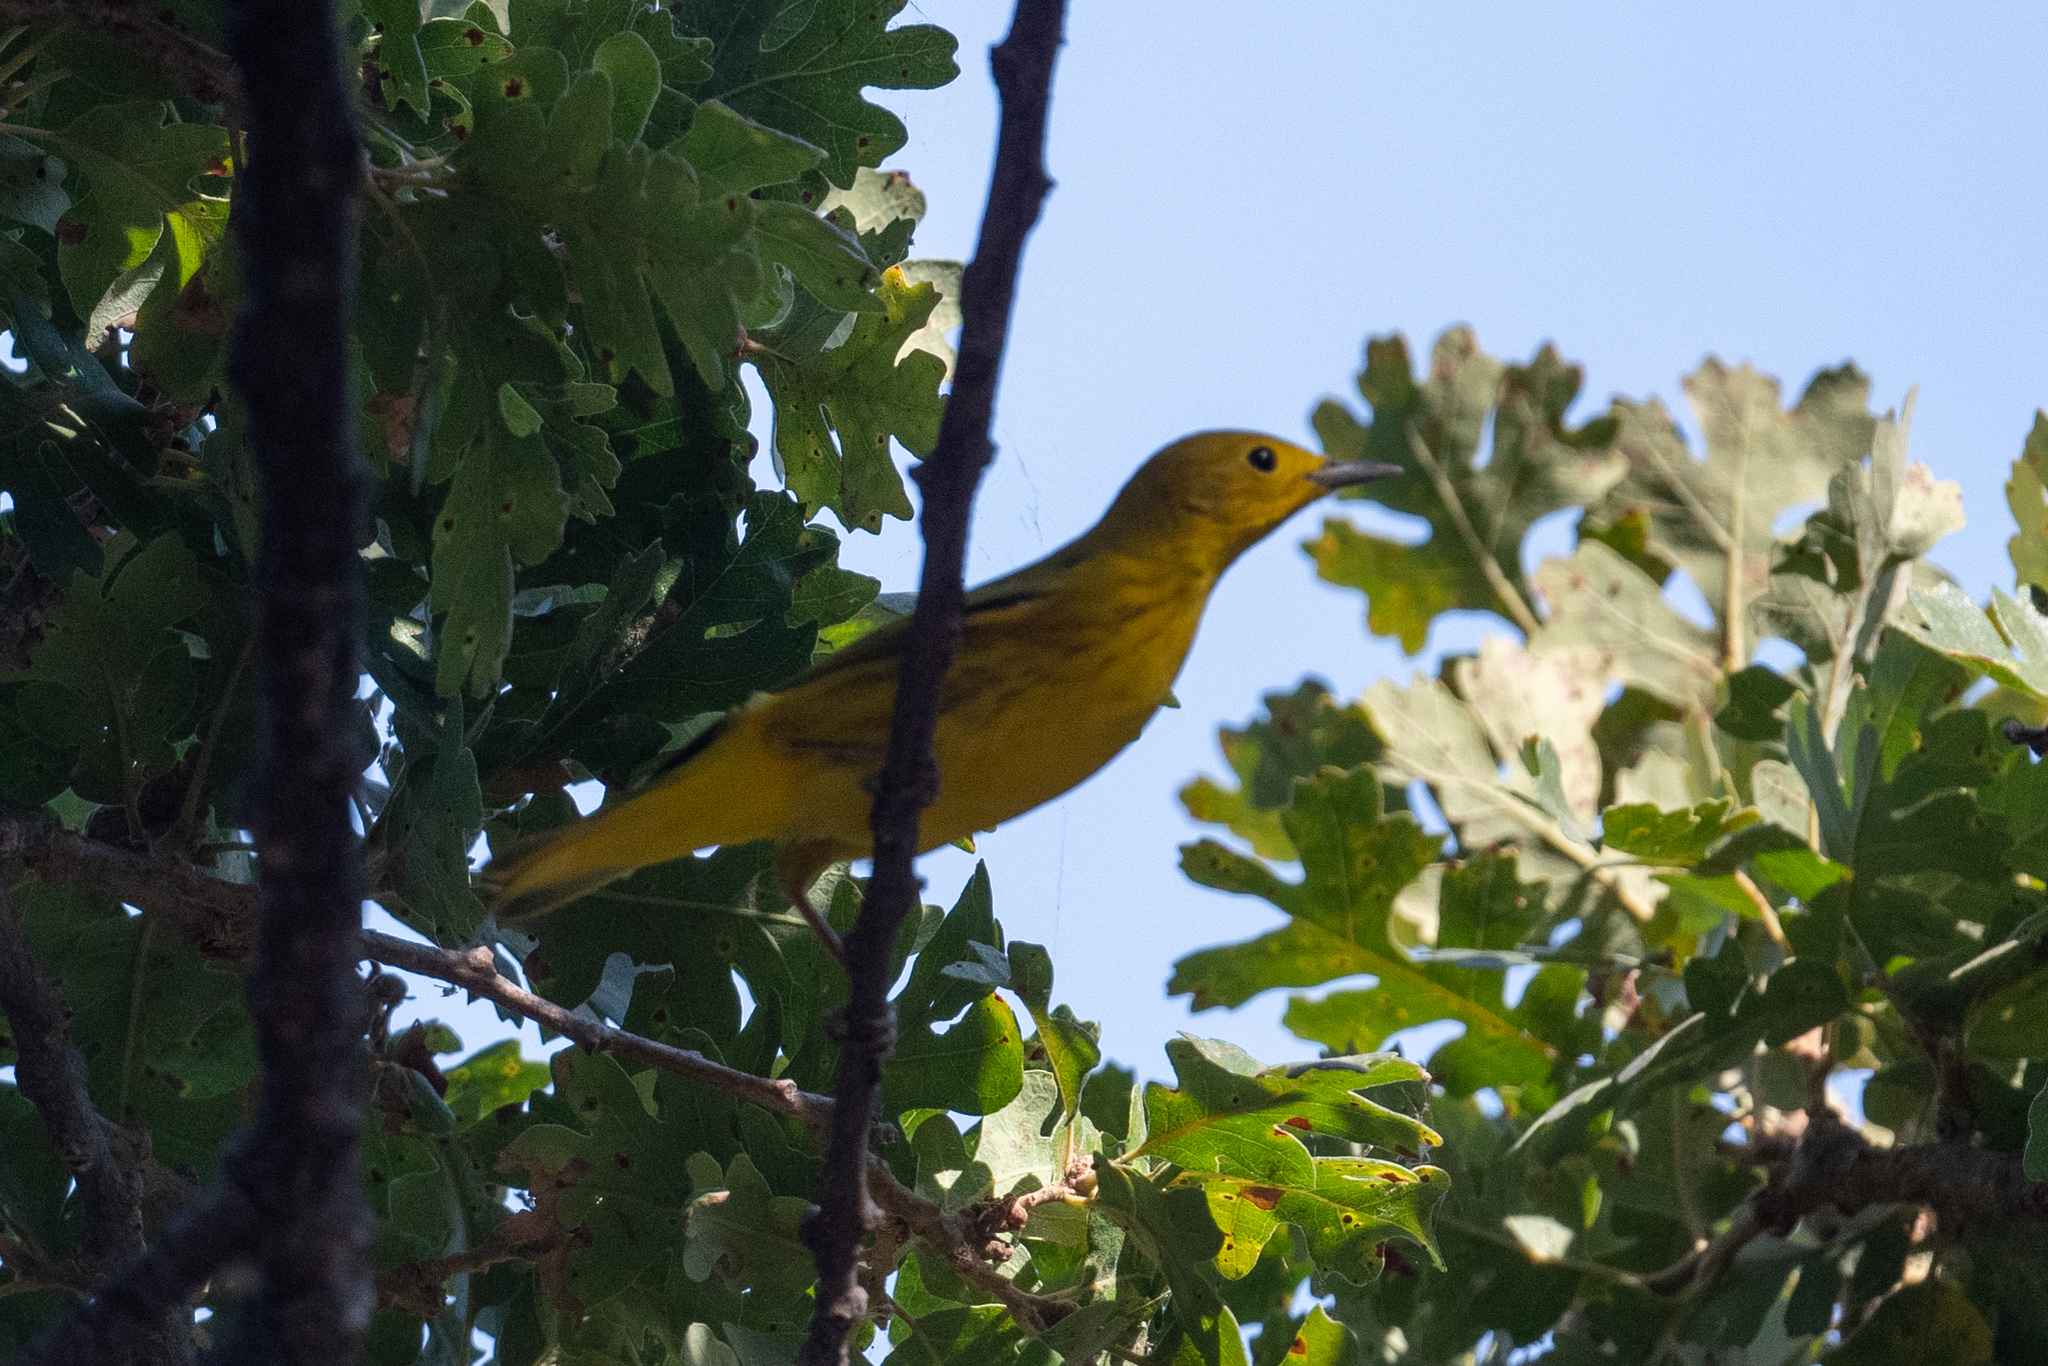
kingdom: Animalia
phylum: Chordata
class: Aves
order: Passeriformes
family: Parulidae
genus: Setophaga
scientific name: Setophaga petechia
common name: Yellow warbler
